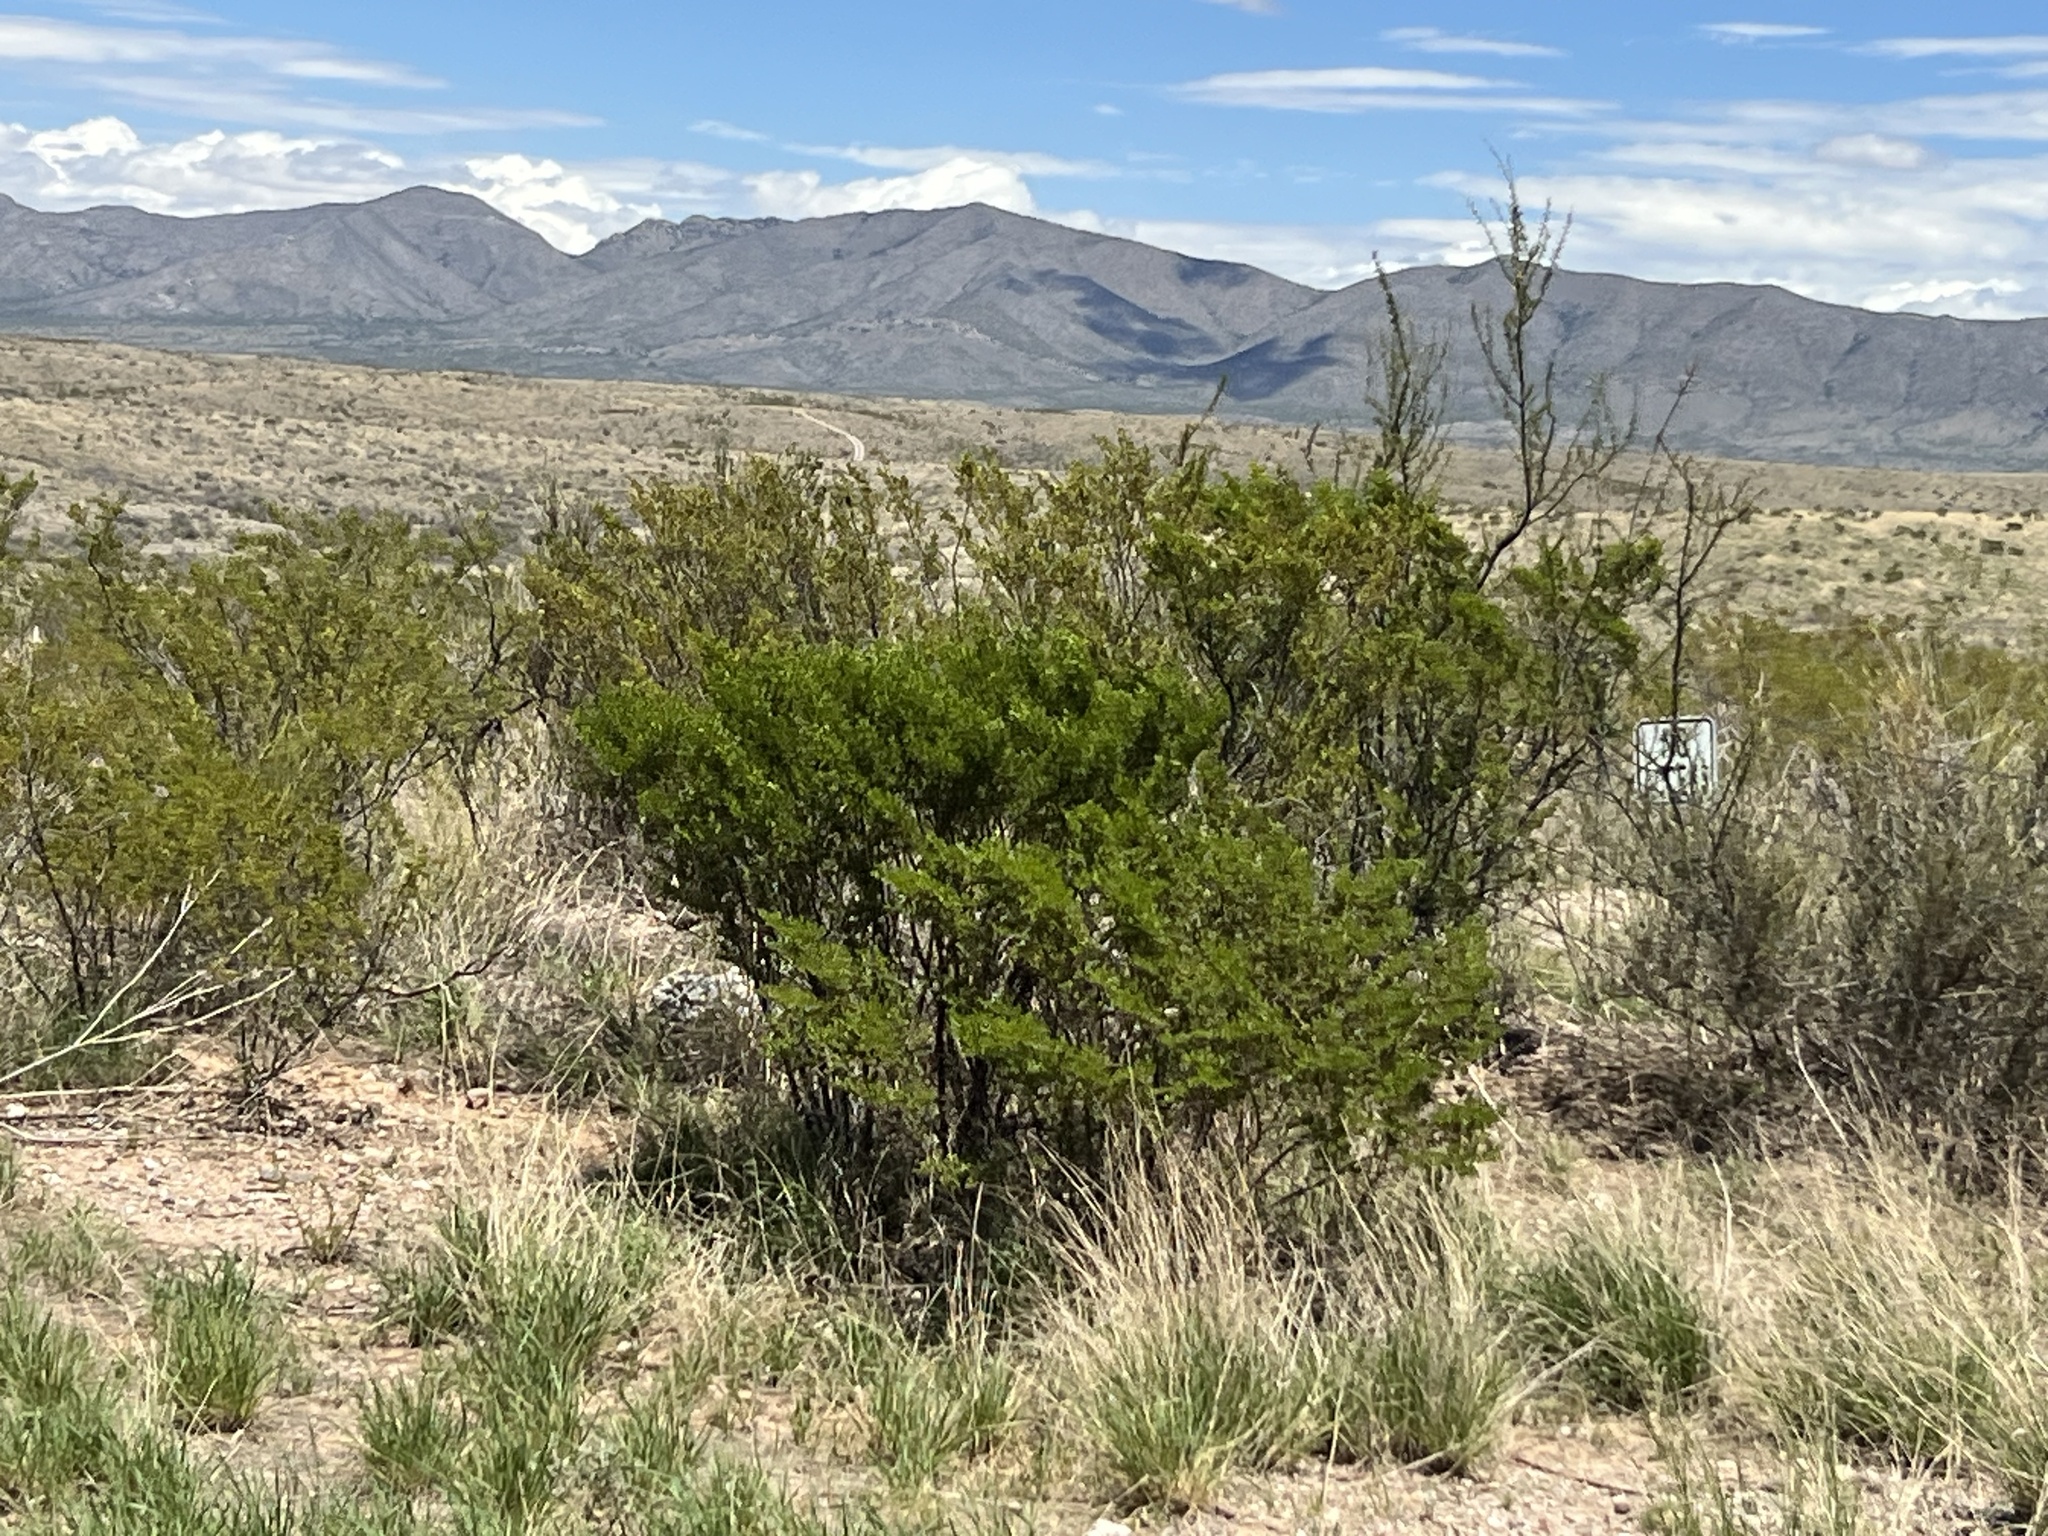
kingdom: Plantae
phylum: Tracheophyta
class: Magnoliopsida
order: Zygophyllales
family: Zygophyllaceae
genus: Larrea
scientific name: Larrea tridentata
